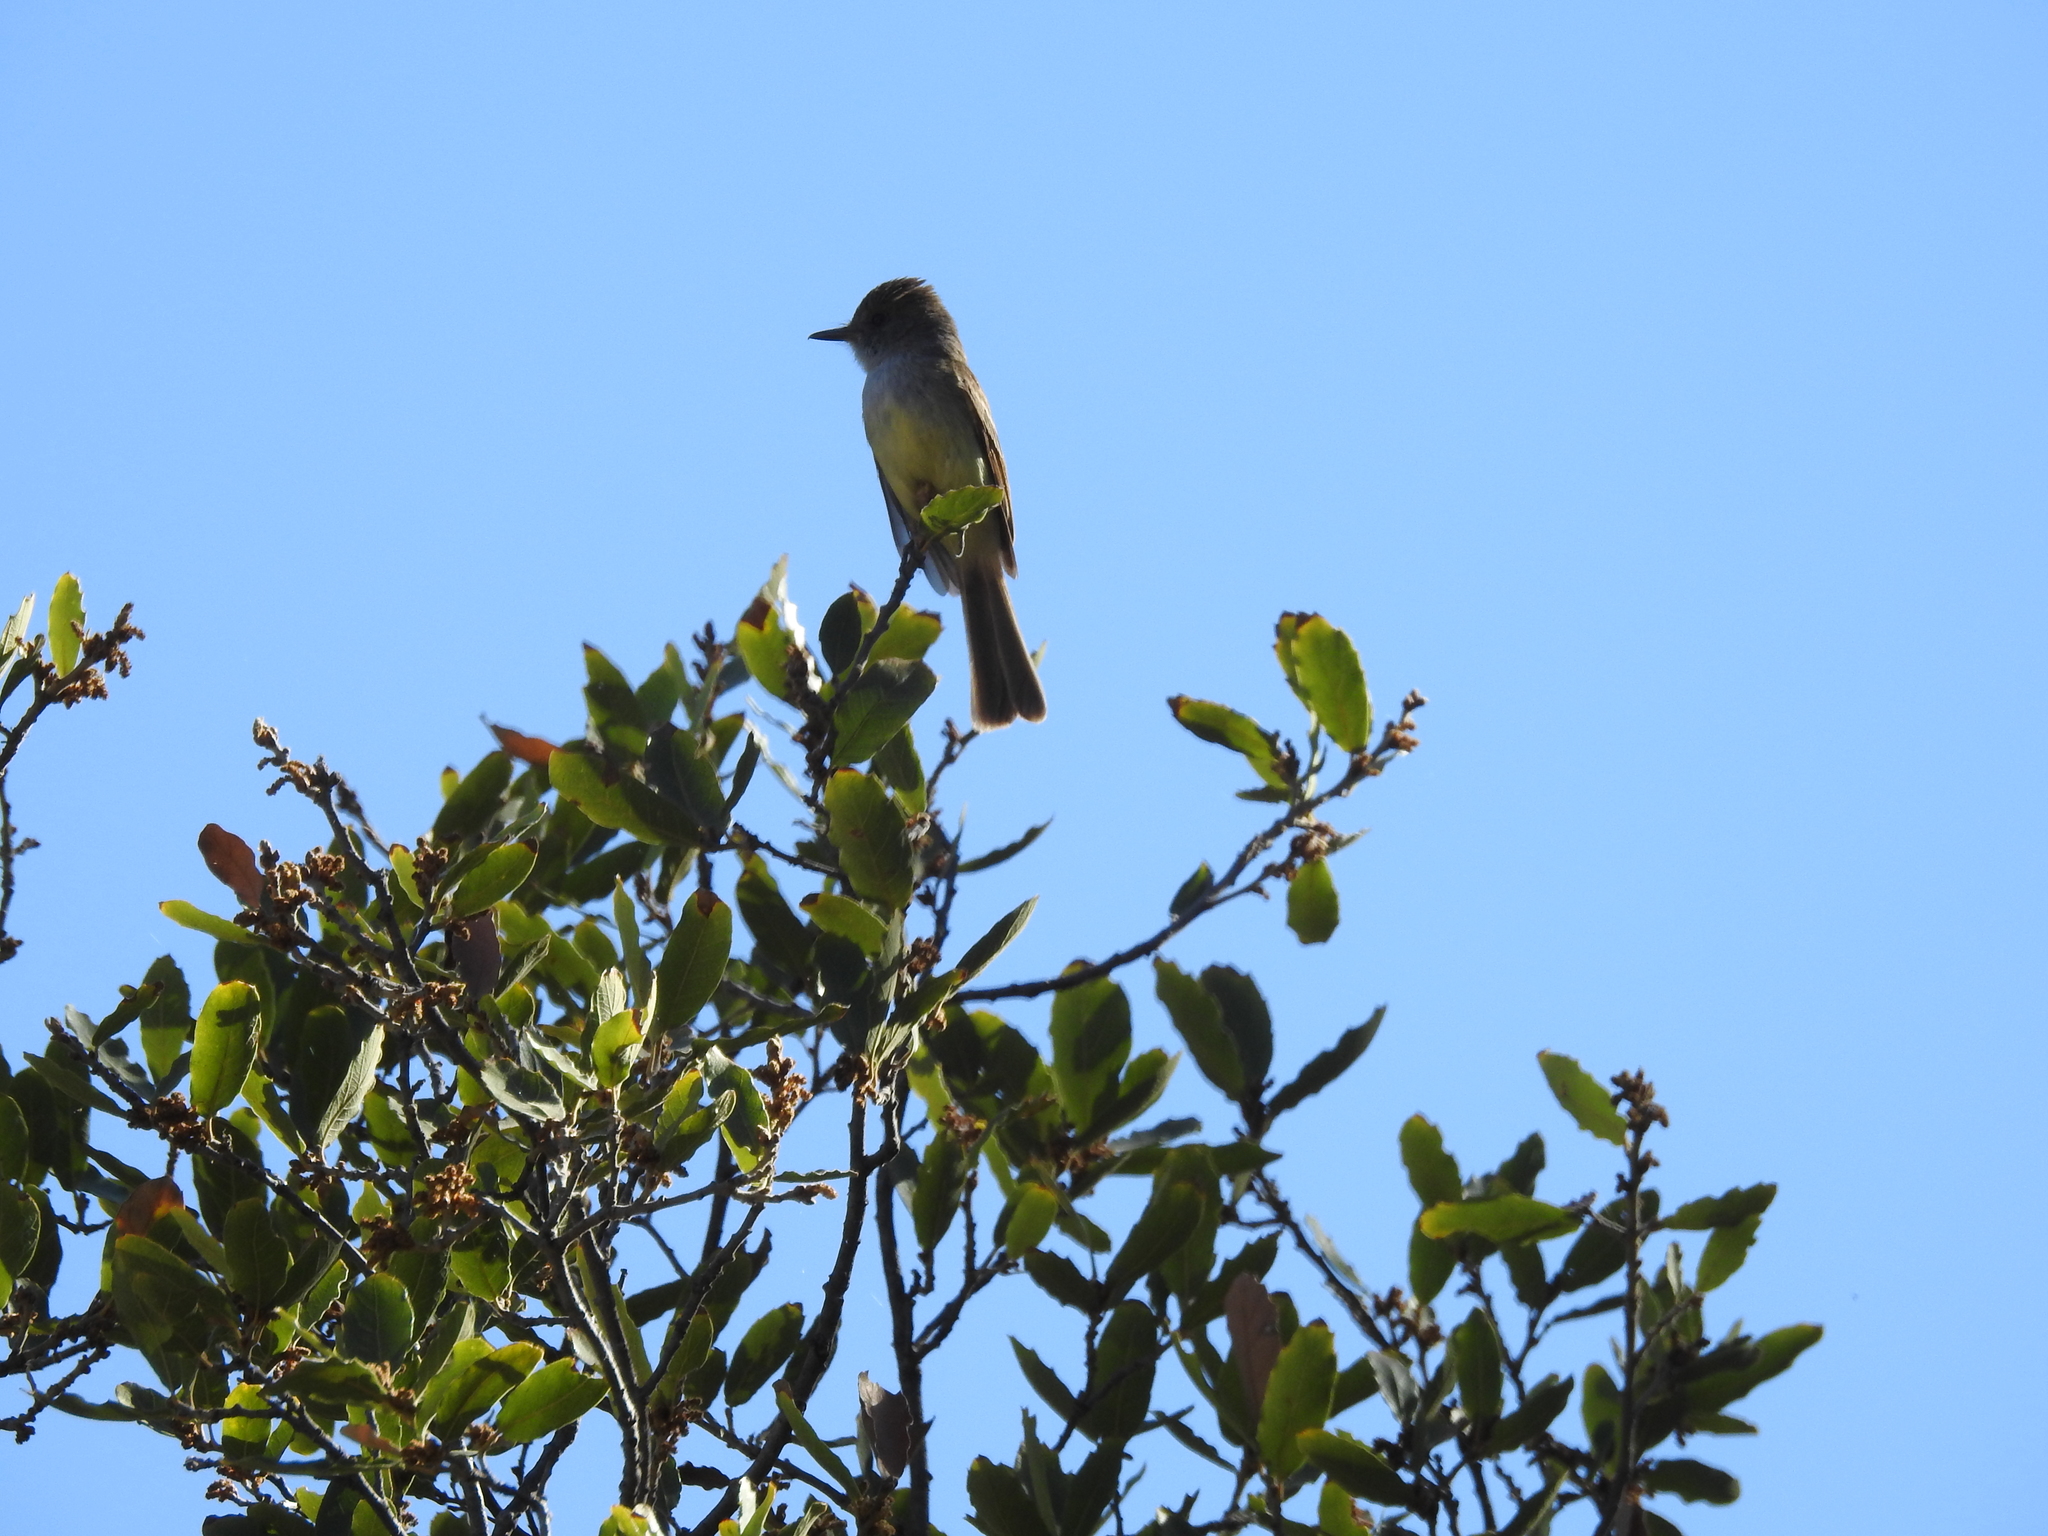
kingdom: Animalia
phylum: Chordata
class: Aves
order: Passeriformes
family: Tyrannidae
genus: Myiarchus
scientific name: Myiarchus tuberculifer
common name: Dusky-capped flycatcher
